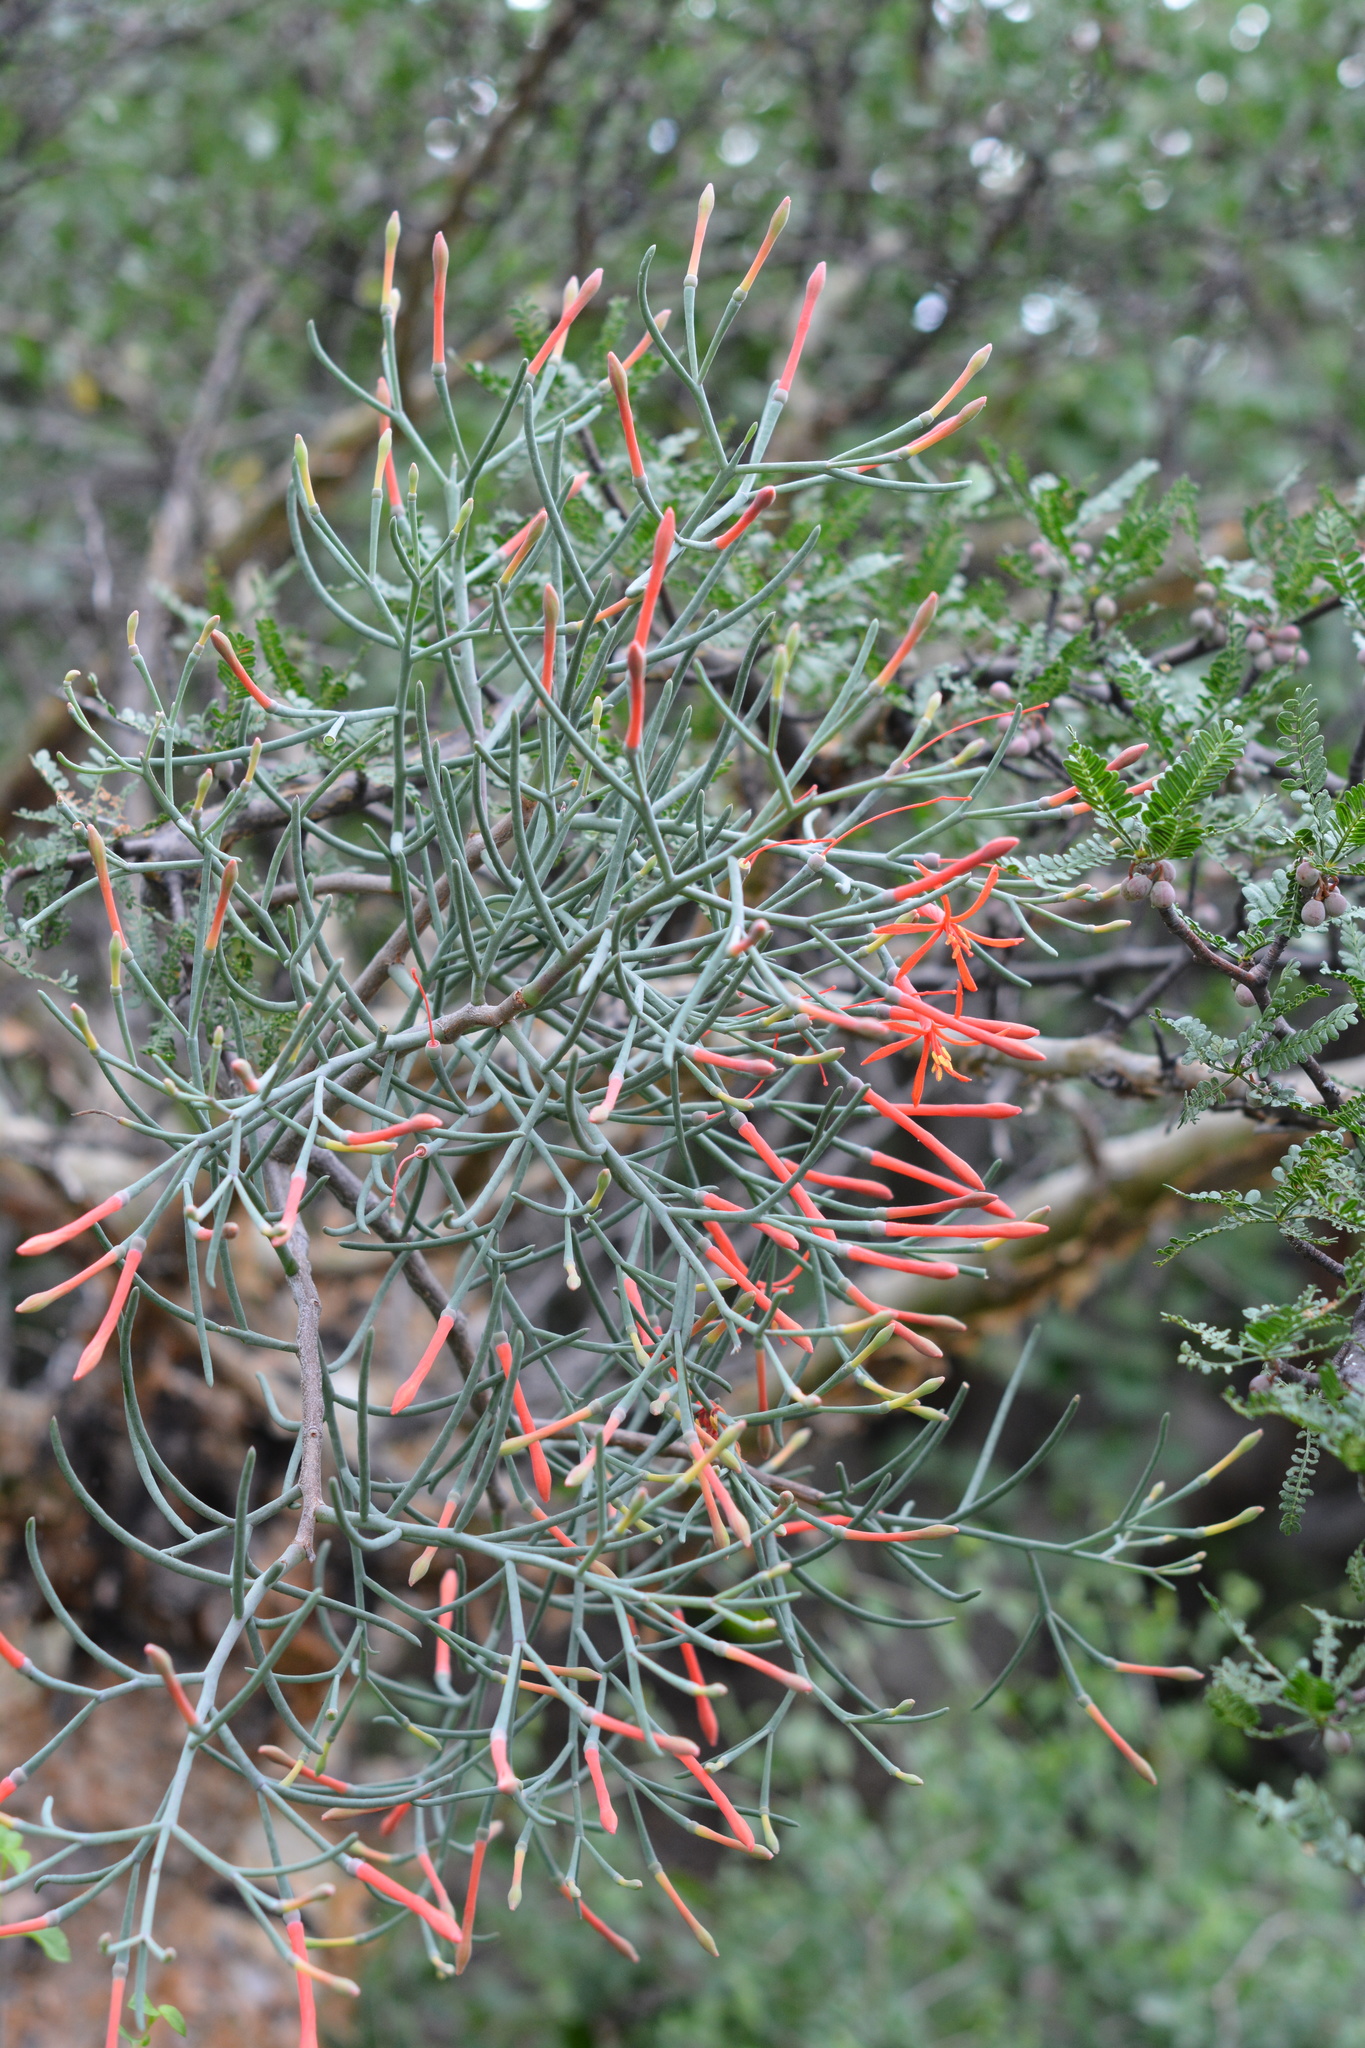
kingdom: Plantae
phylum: Tracheophyta
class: Magnoliopsida
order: Santalales
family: Loranthaceae
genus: Psittacanthus
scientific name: Psittacanthus sonorae
